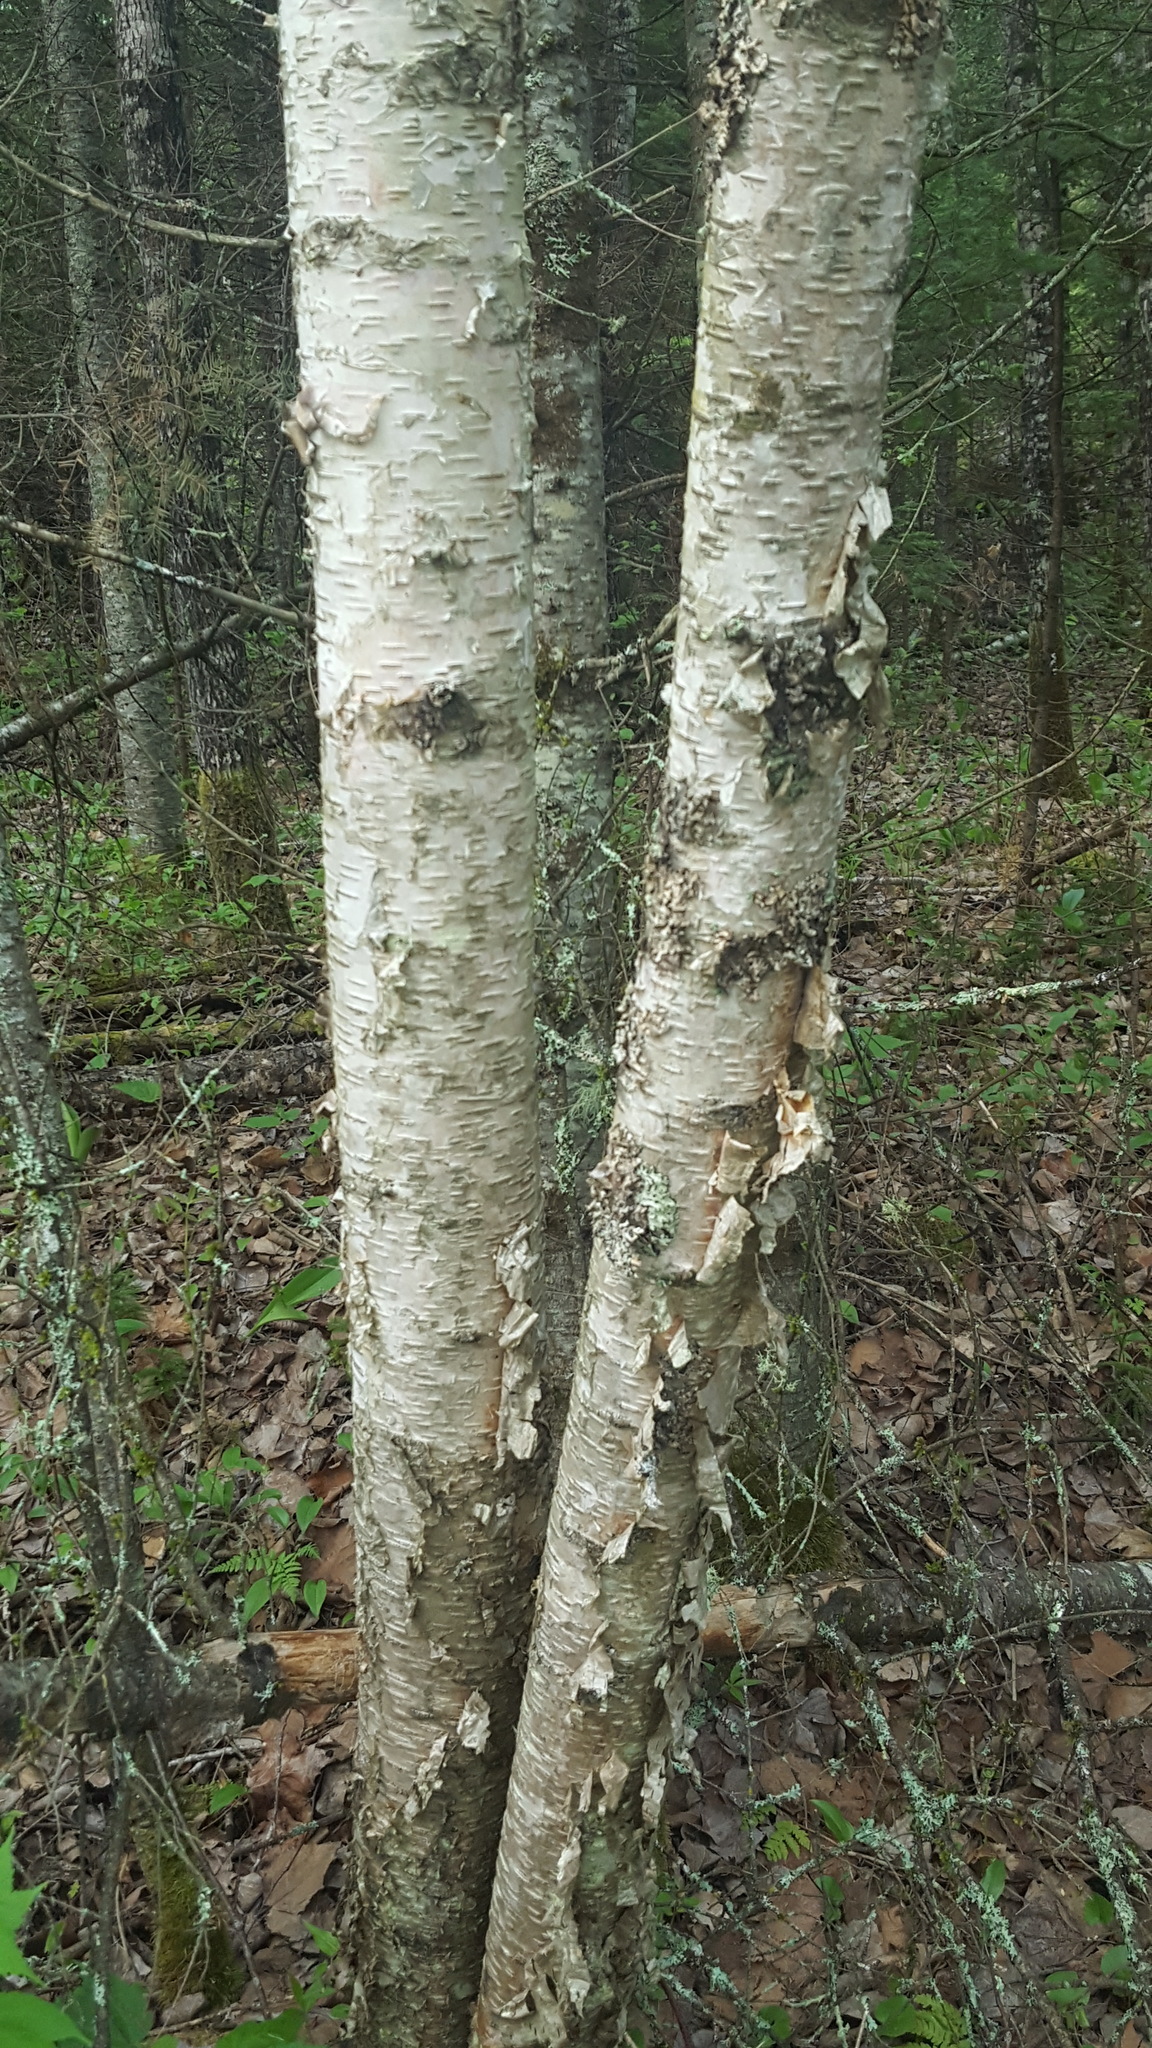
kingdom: Plantae
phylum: Tracheophyta
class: Magnoliopsida
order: Fagales
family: Betulaceae
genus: Betula
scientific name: Betula papyrifera
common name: Paper birch
